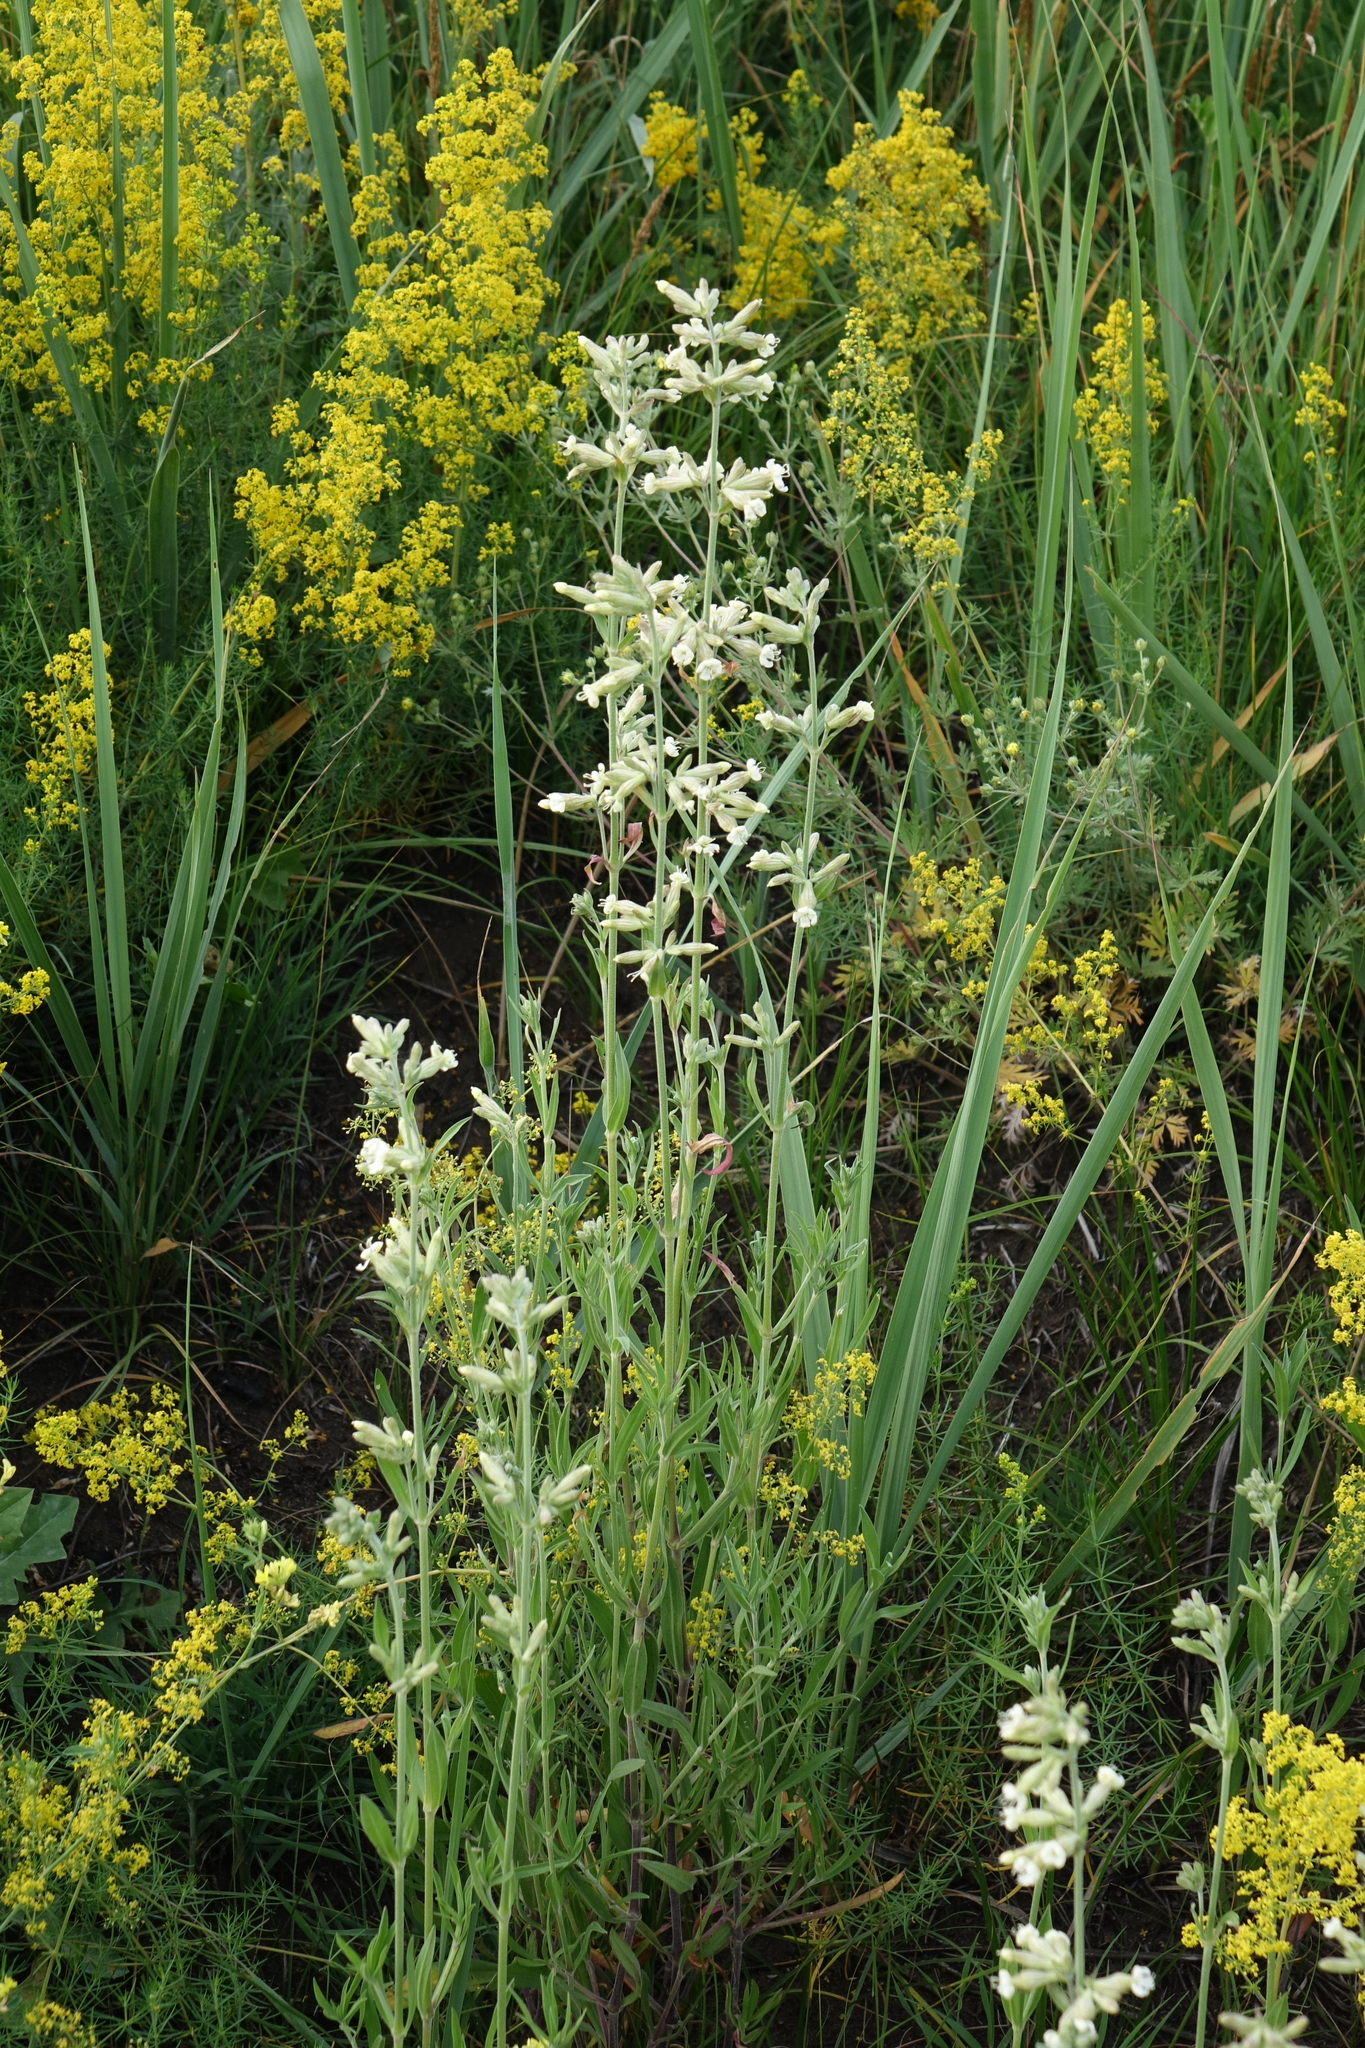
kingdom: Plantae
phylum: Tracheophyta
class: Magnoliopsida
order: Caryophyllales
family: Caryophyllaceae
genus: Silene
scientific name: Silene amoena
